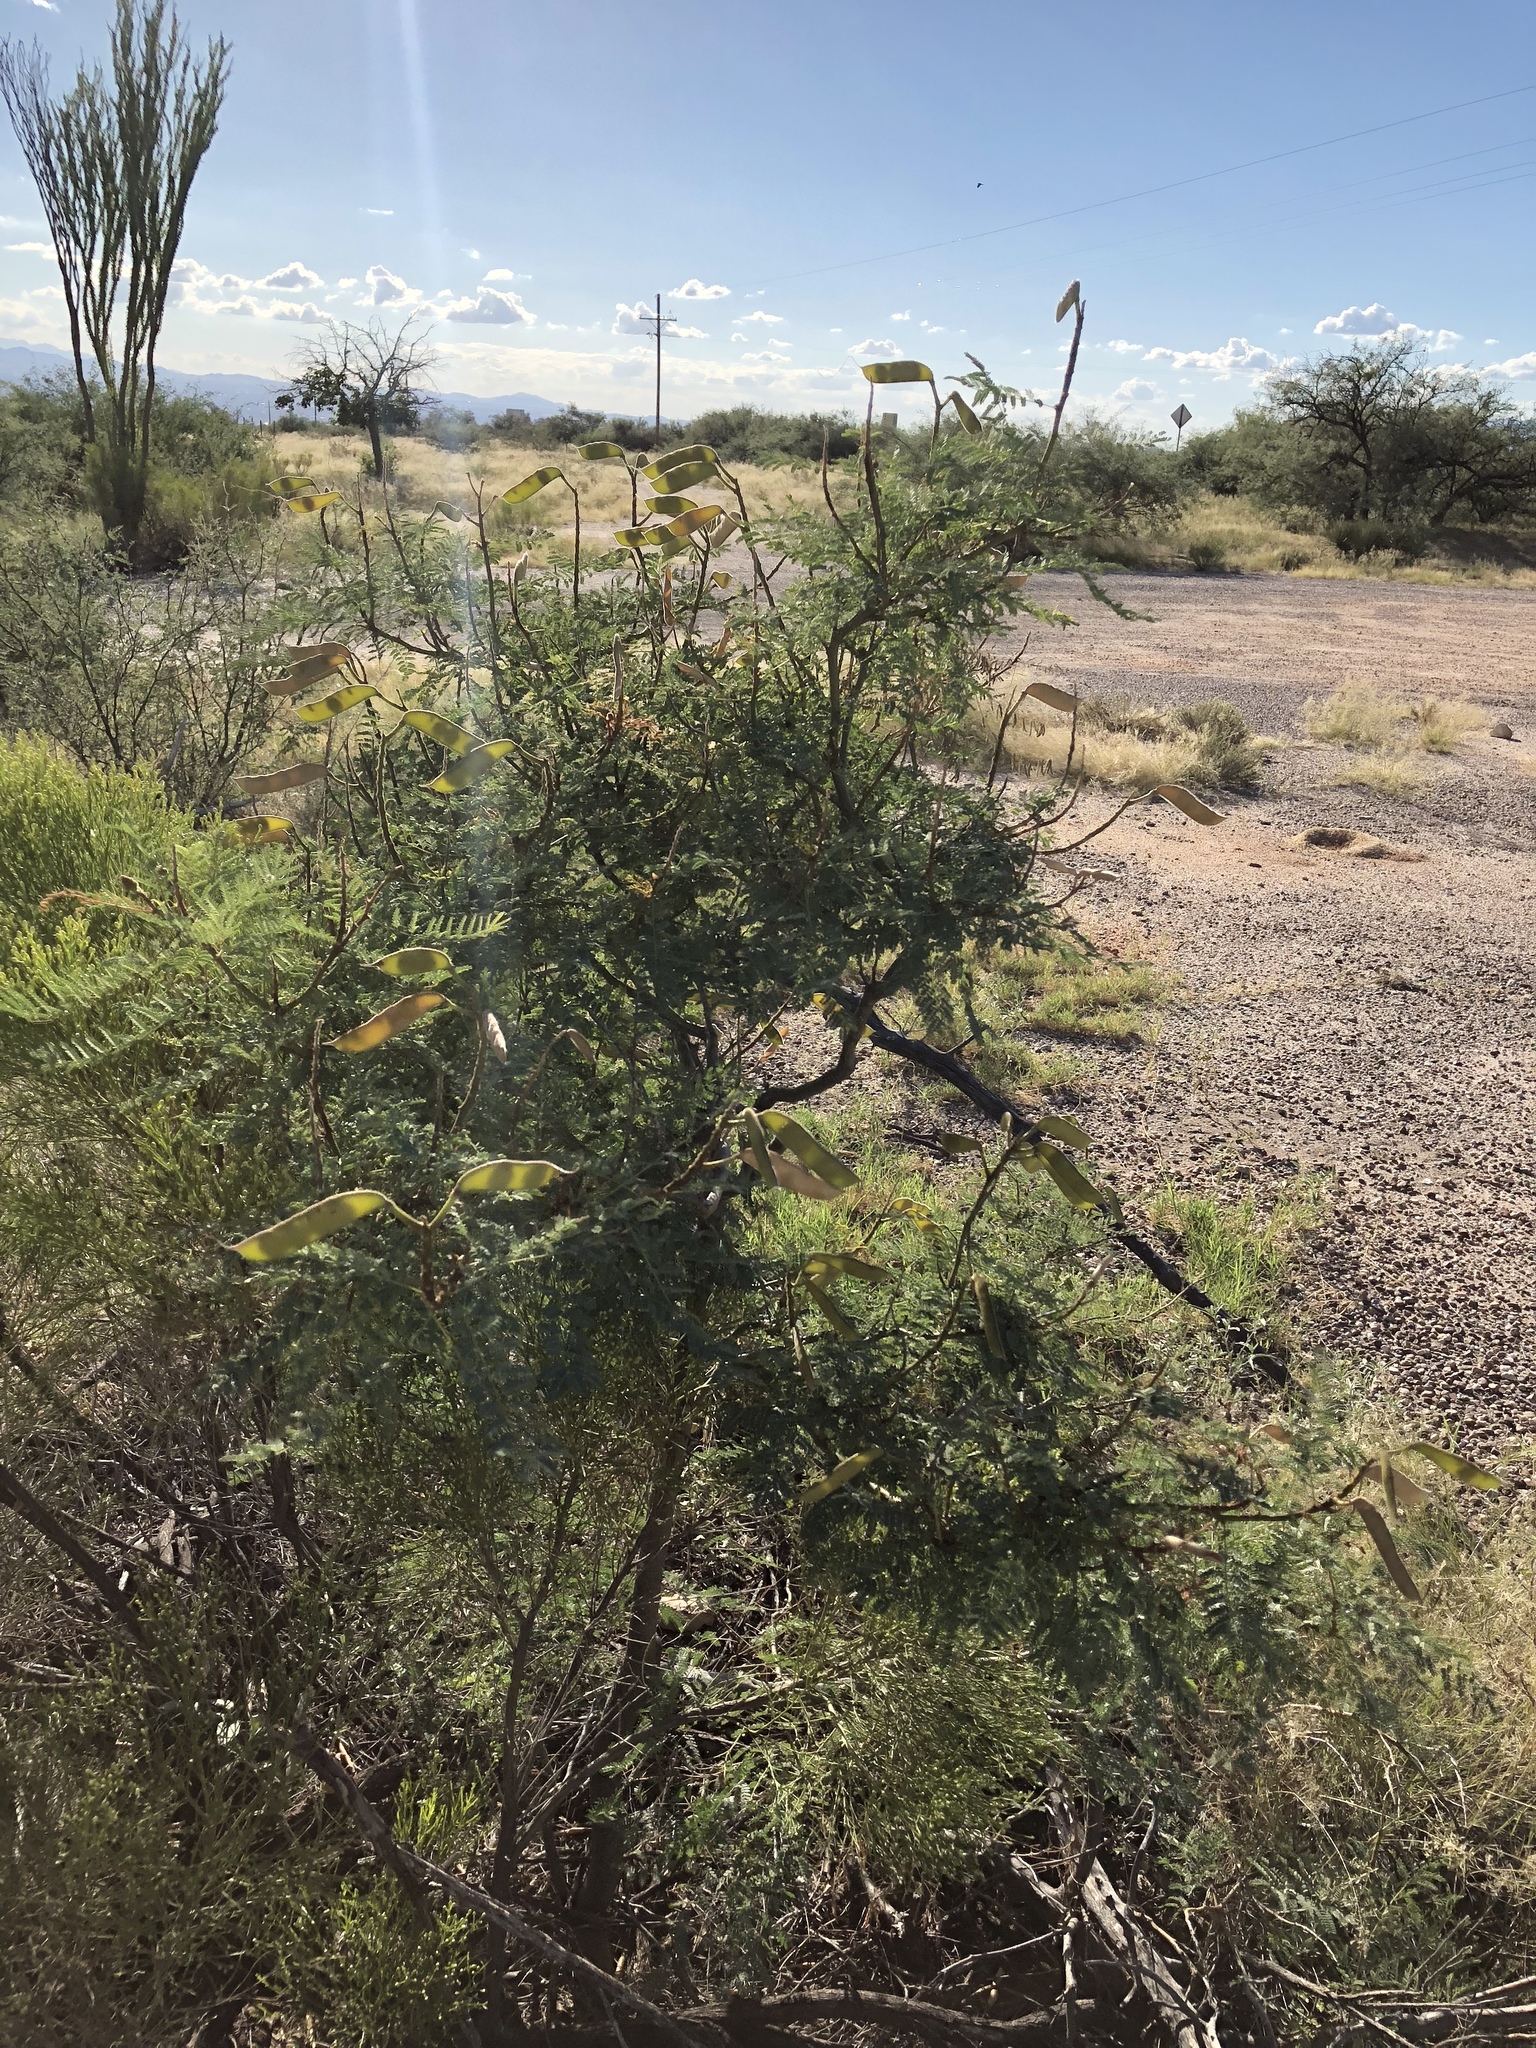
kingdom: Plantae
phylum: Tracheophyta
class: Magnoliopsida
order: Fabales
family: Fabaceae
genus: Erythrostemon
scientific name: Erythrostemon gilliesii
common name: Bird-of-paradise shrub
